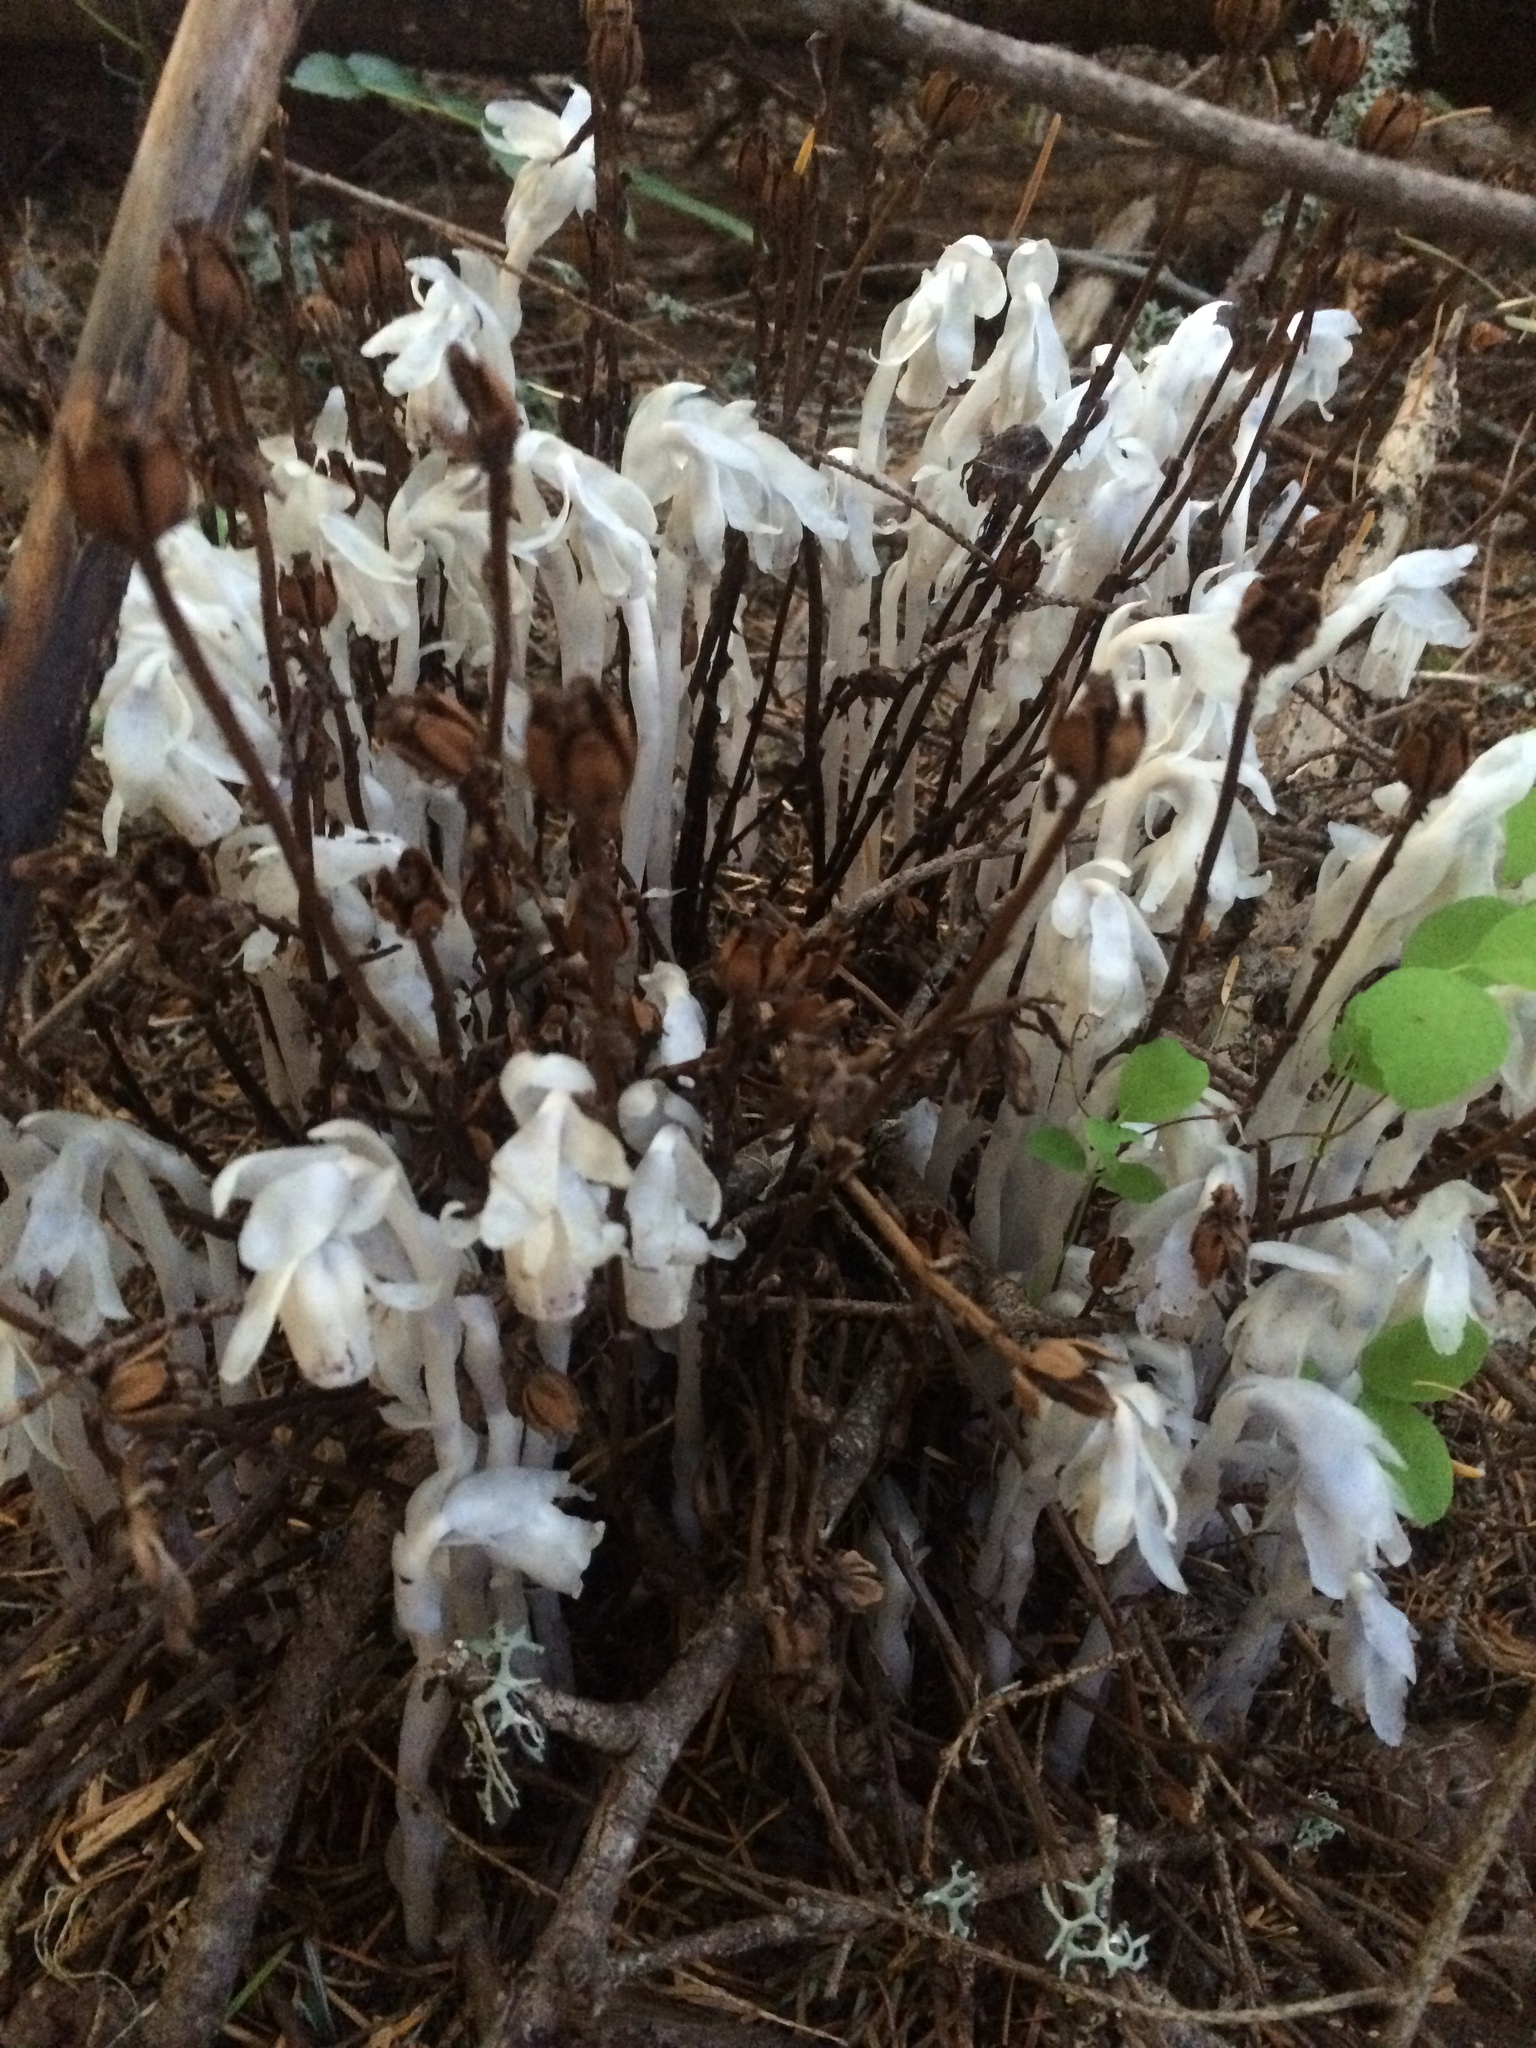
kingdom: Plantae
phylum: Tracheophyta
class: Magnoliopsida
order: Ericales
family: Ericaceae
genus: Monotropa
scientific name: Monotropa uniflora
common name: Convulsion root
